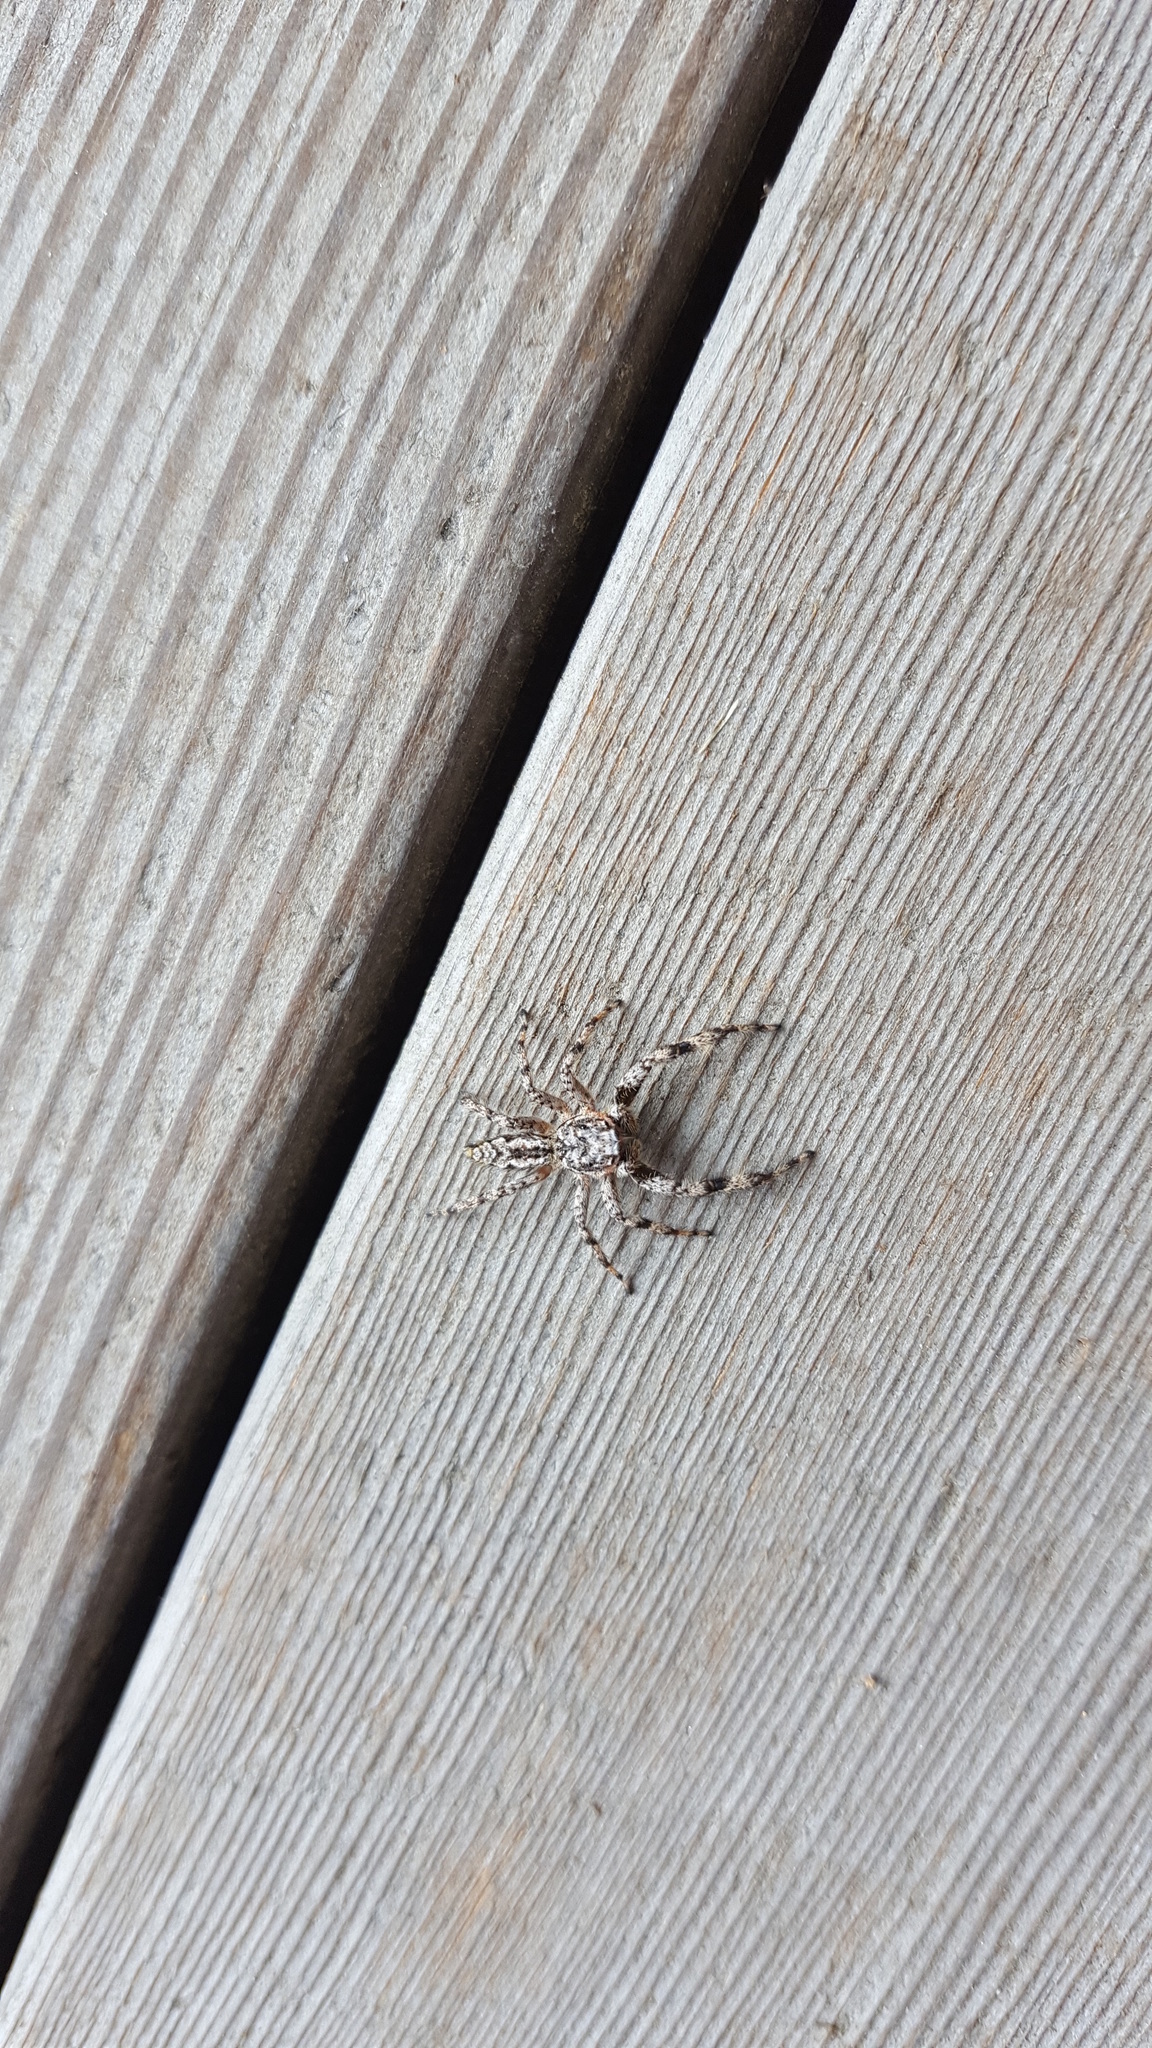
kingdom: Animalia
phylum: Arthropoda
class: Arachnida
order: Araneae
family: Salticidae
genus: Platycryptus
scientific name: Platycryptus undatus
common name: Tan jumping spider
